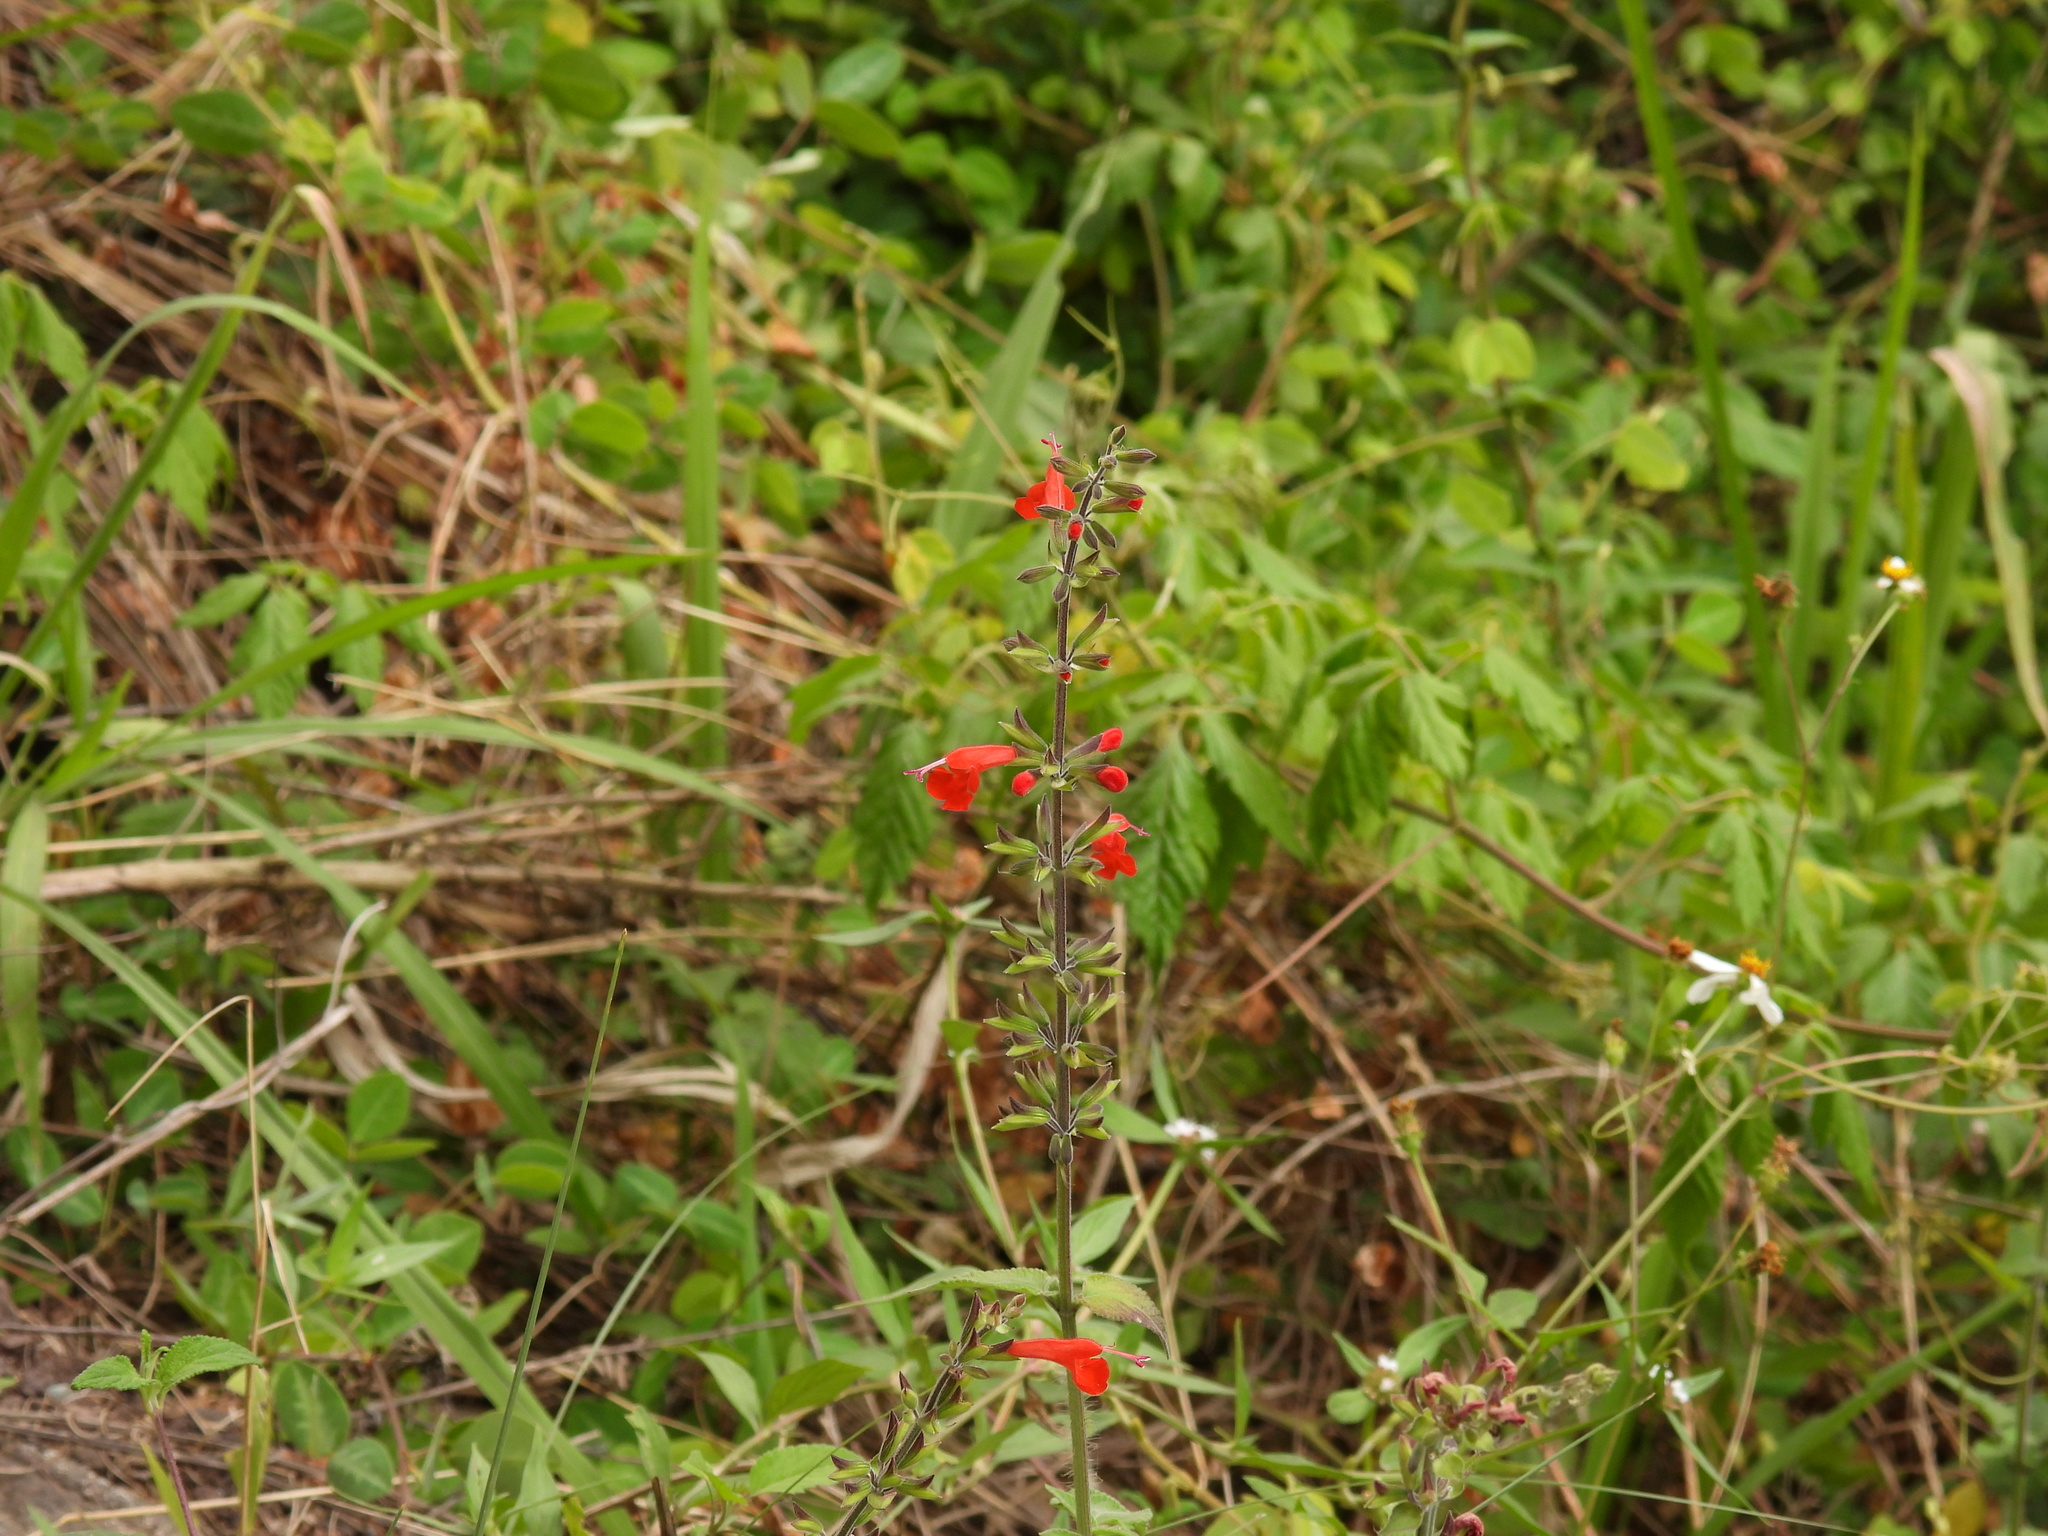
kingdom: Plantae
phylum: Tracheophyta
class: Magnoliopsida
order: Lamiales
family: Lamiaceae
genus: Salvia
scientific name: Salvia coccinea
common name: Blood sage
